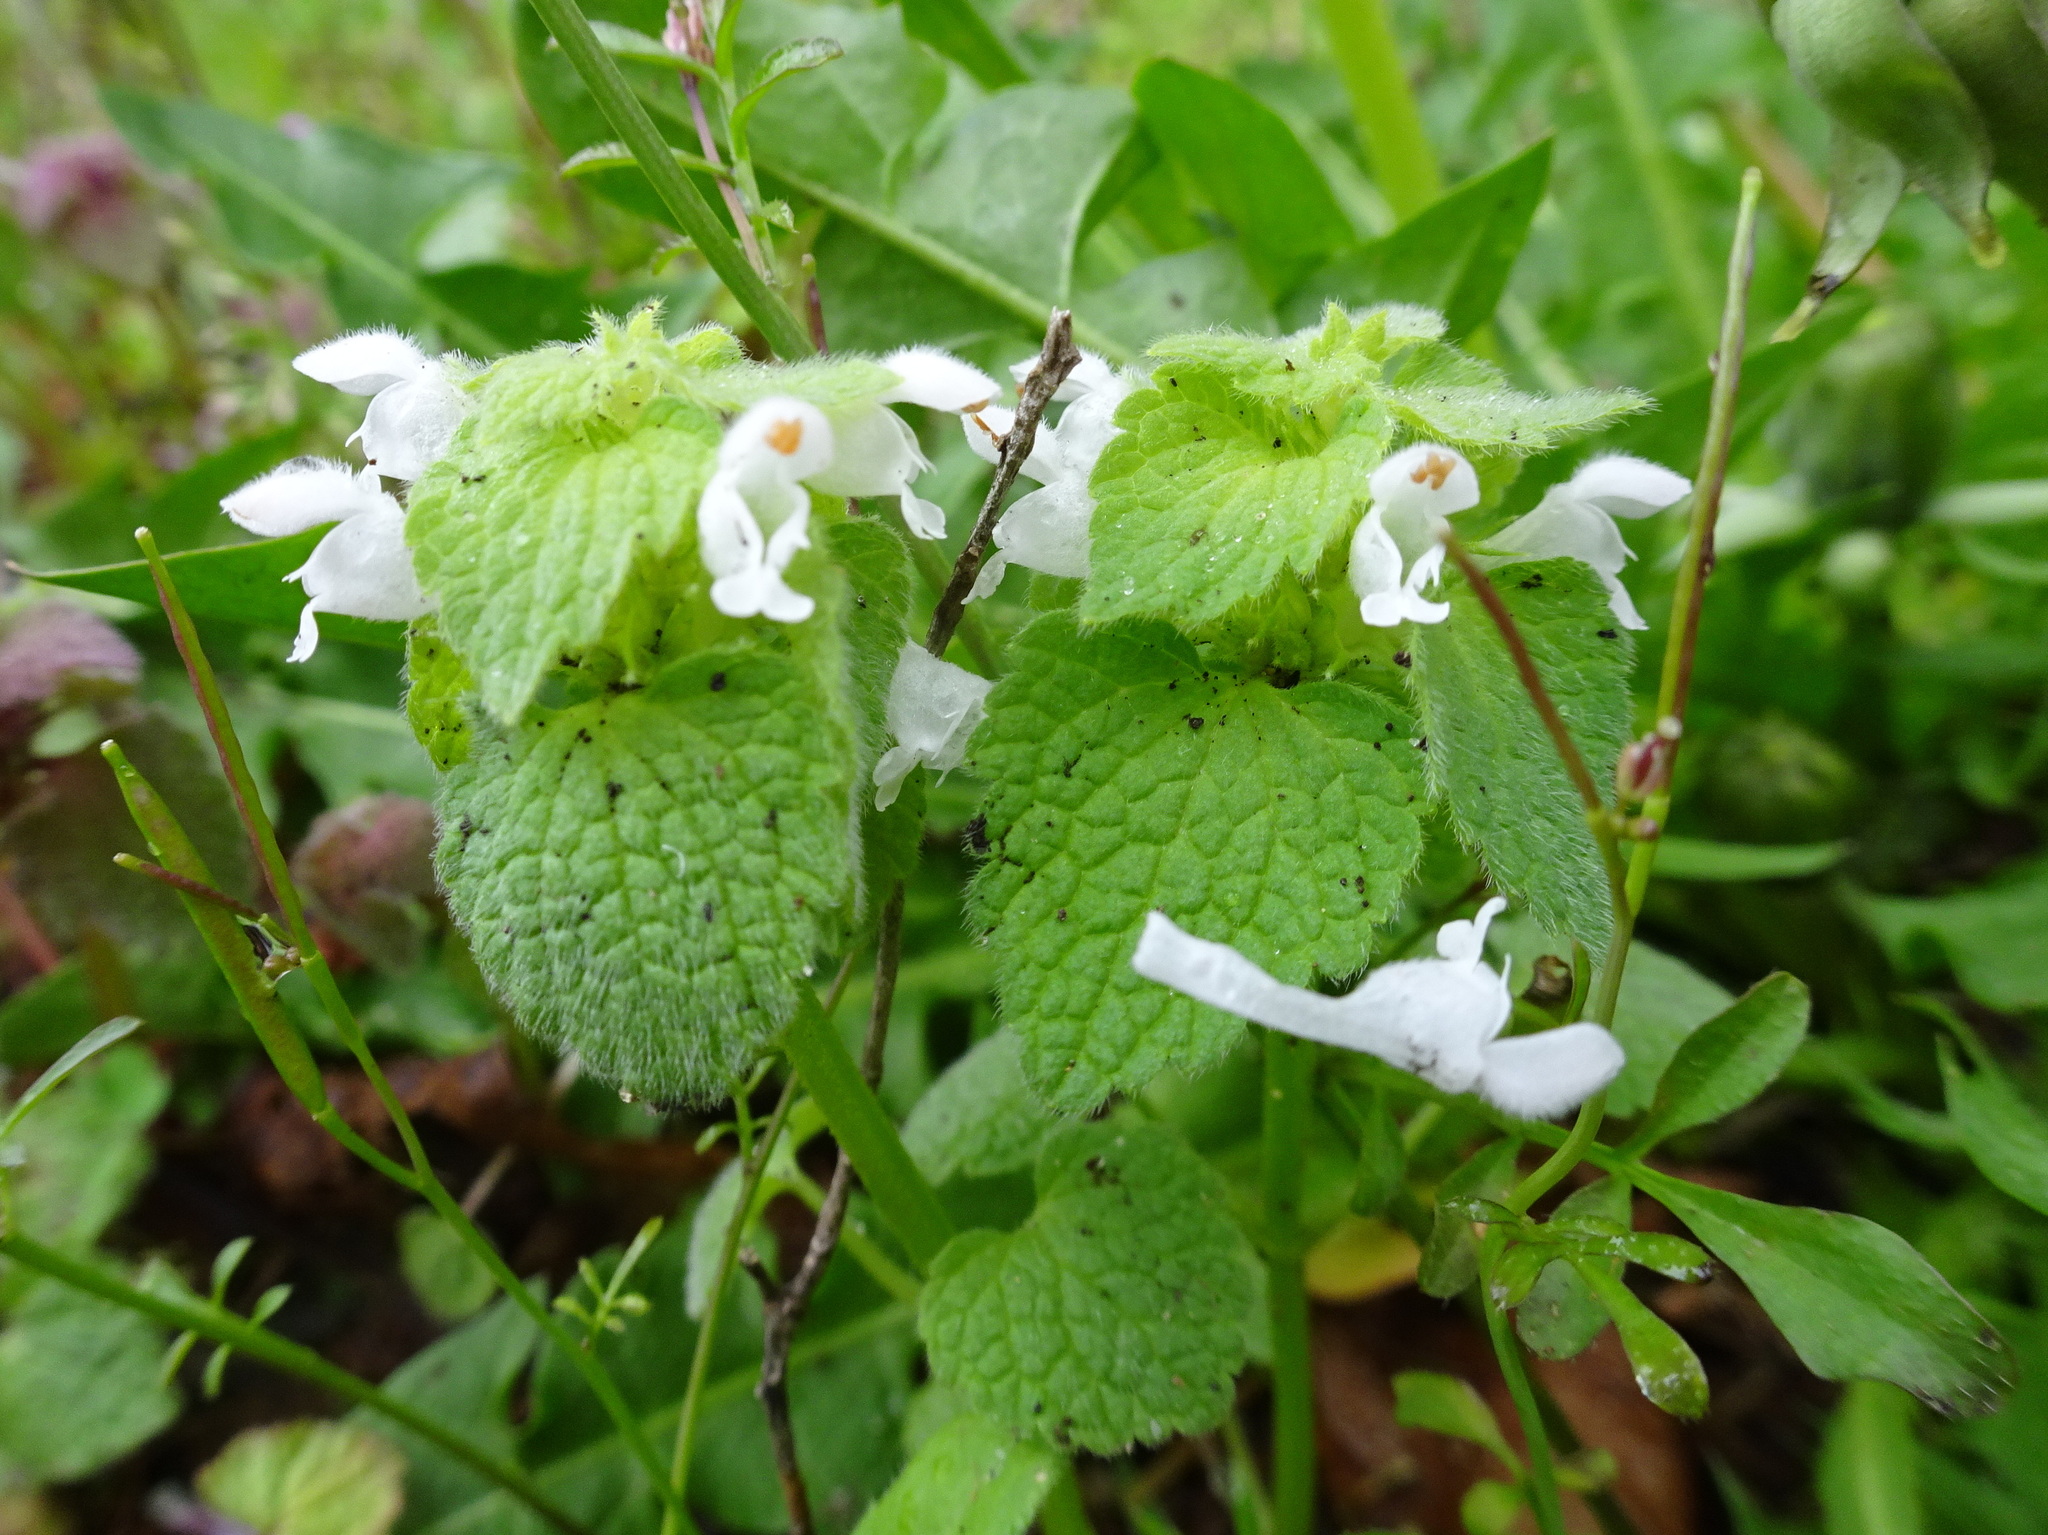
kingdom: Plantae
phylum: Tracheophyta
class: Magnoliopsida
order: Lamiales
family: Lamiaceae
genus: Lamium
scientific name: Lamium purpureum
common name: Red dead-nettle
